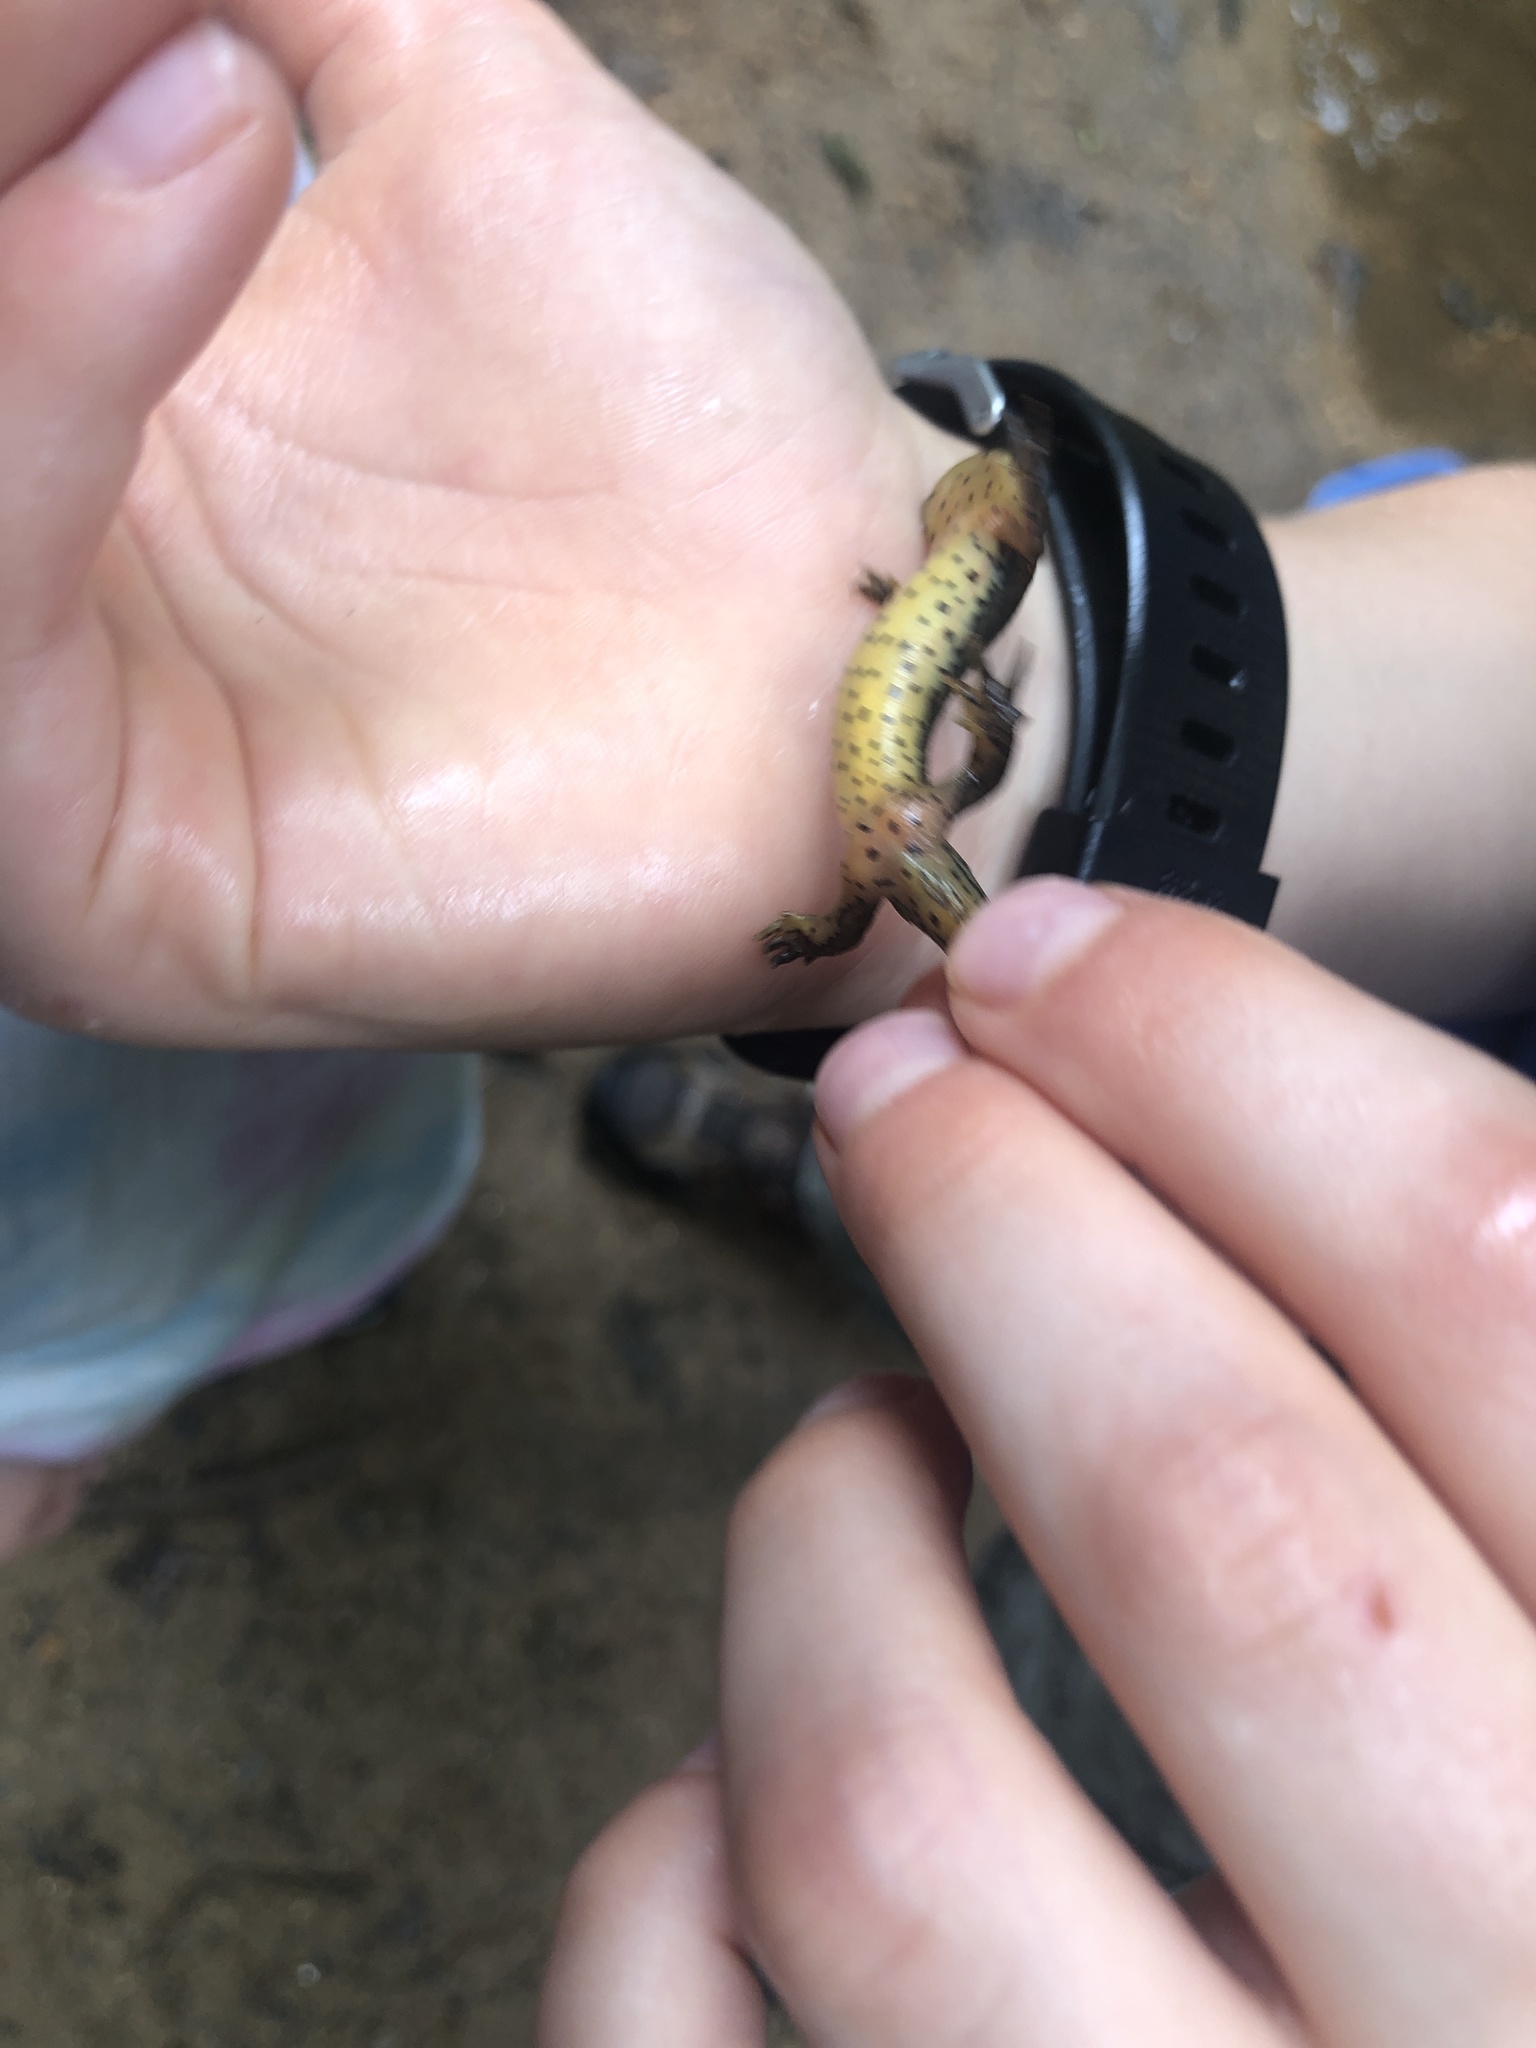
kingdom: Animalia
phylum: Chordata
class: Amphibia
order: Caudata
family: Salamandridae
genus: Notophthalmus
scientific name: Notophthalmus viridescens
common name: Eastern newt
